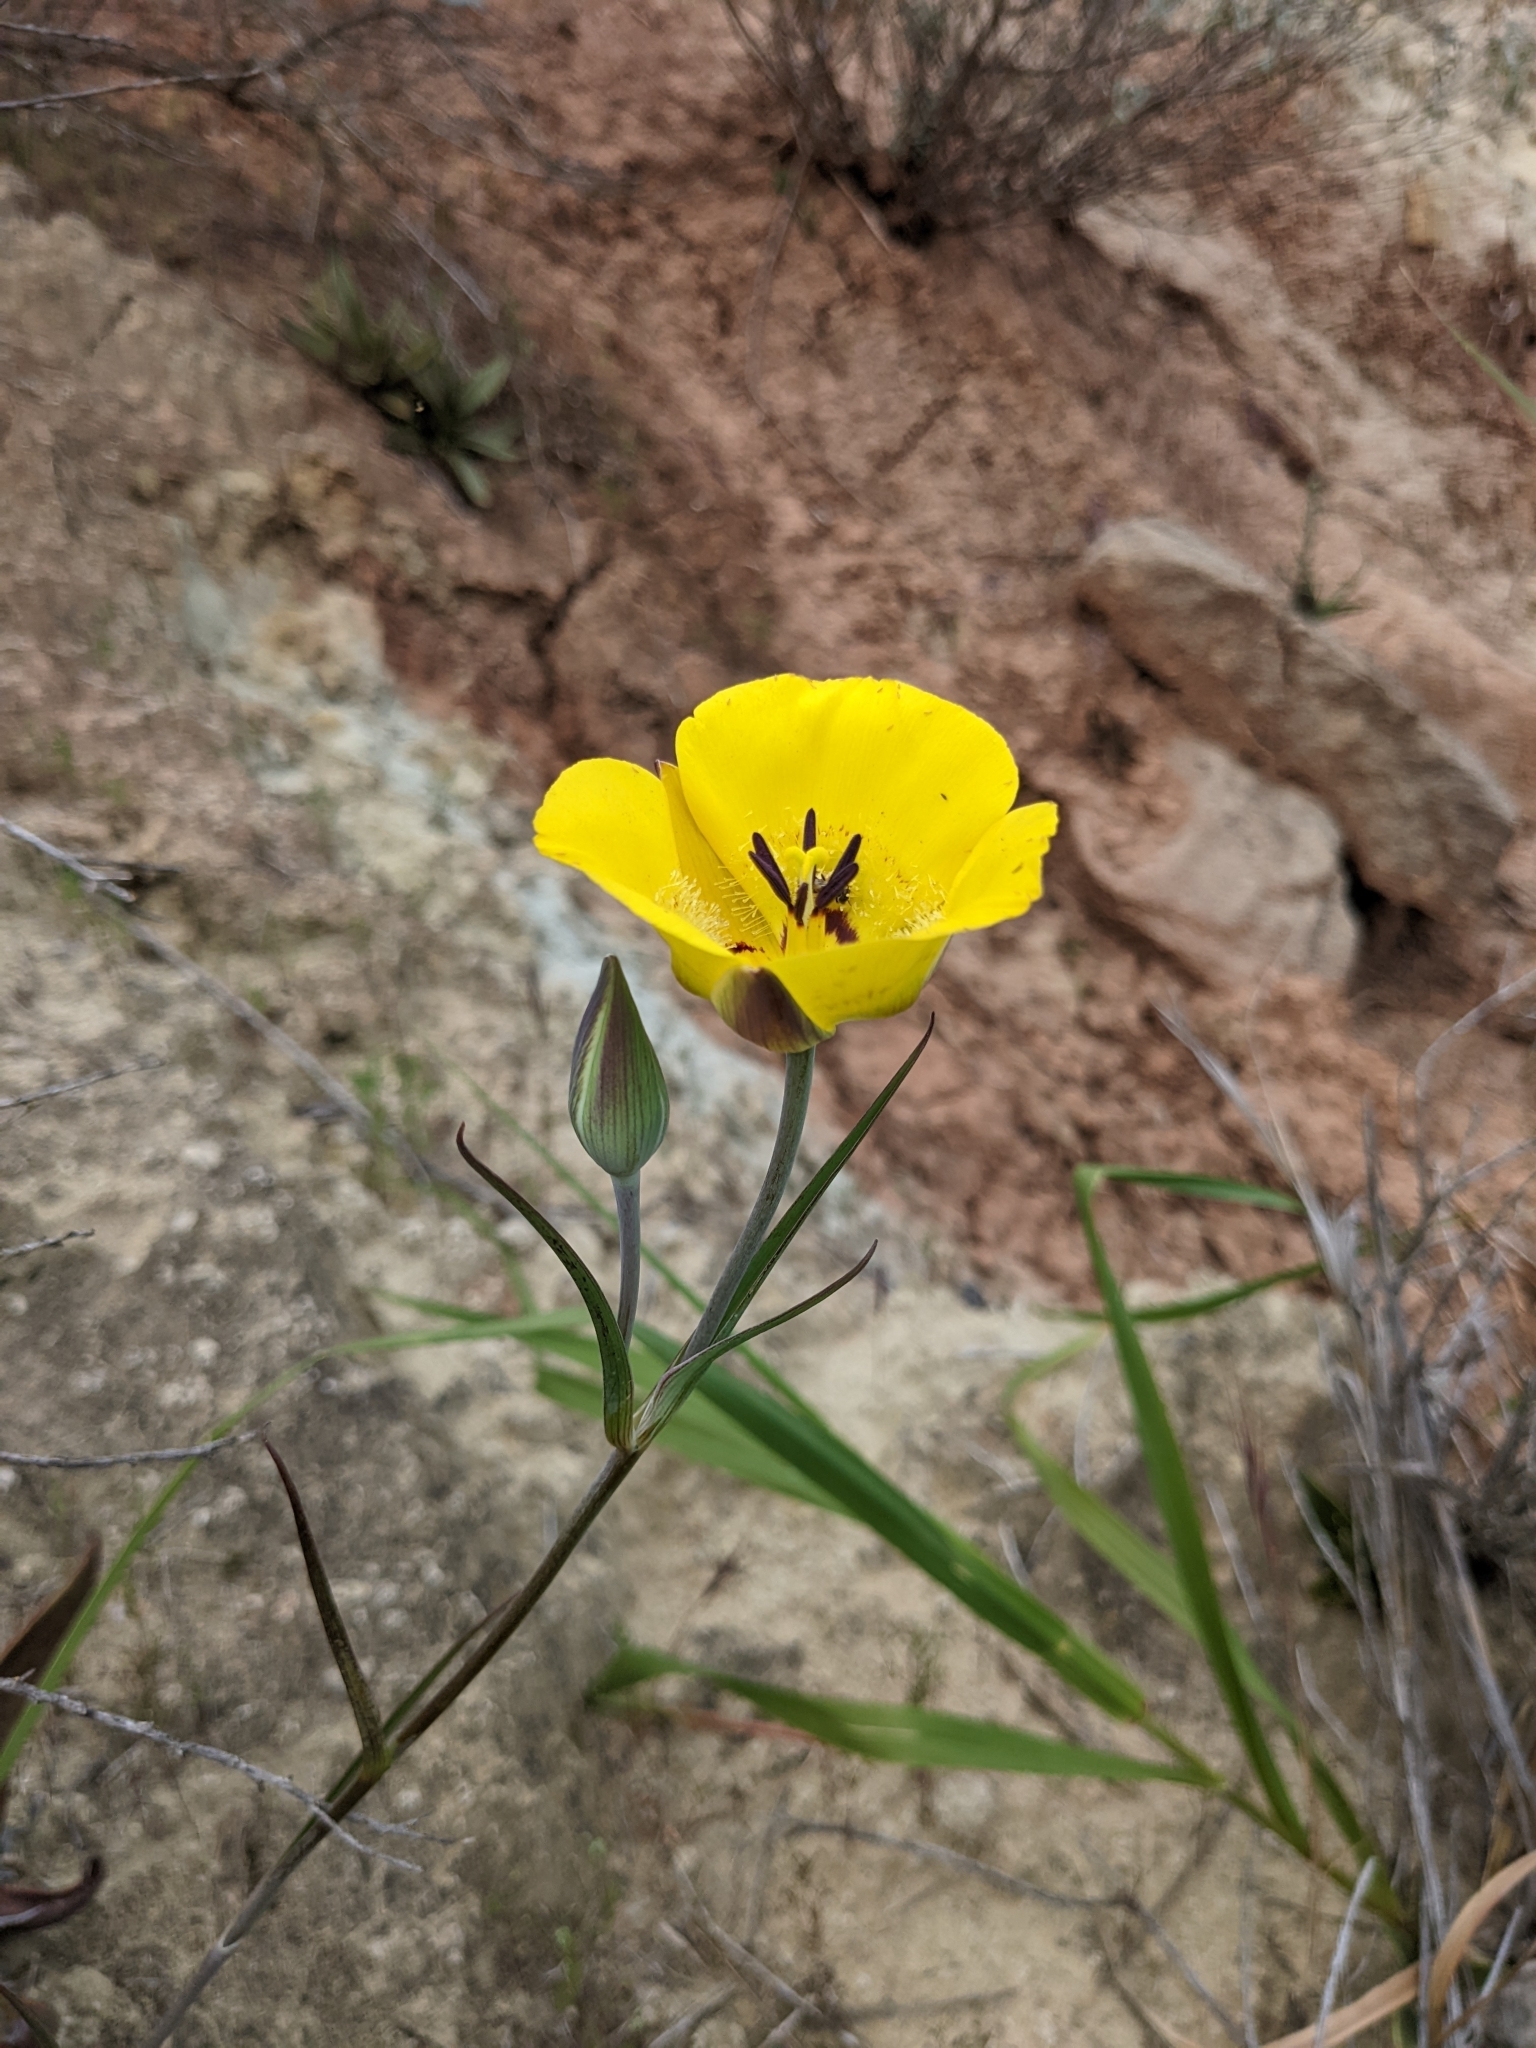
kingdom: Plantae
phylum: Tracheophyta
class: Liliopsida
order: Liliales
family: Liliaceae
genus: Calochortus
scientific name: Calochortus clavatus
